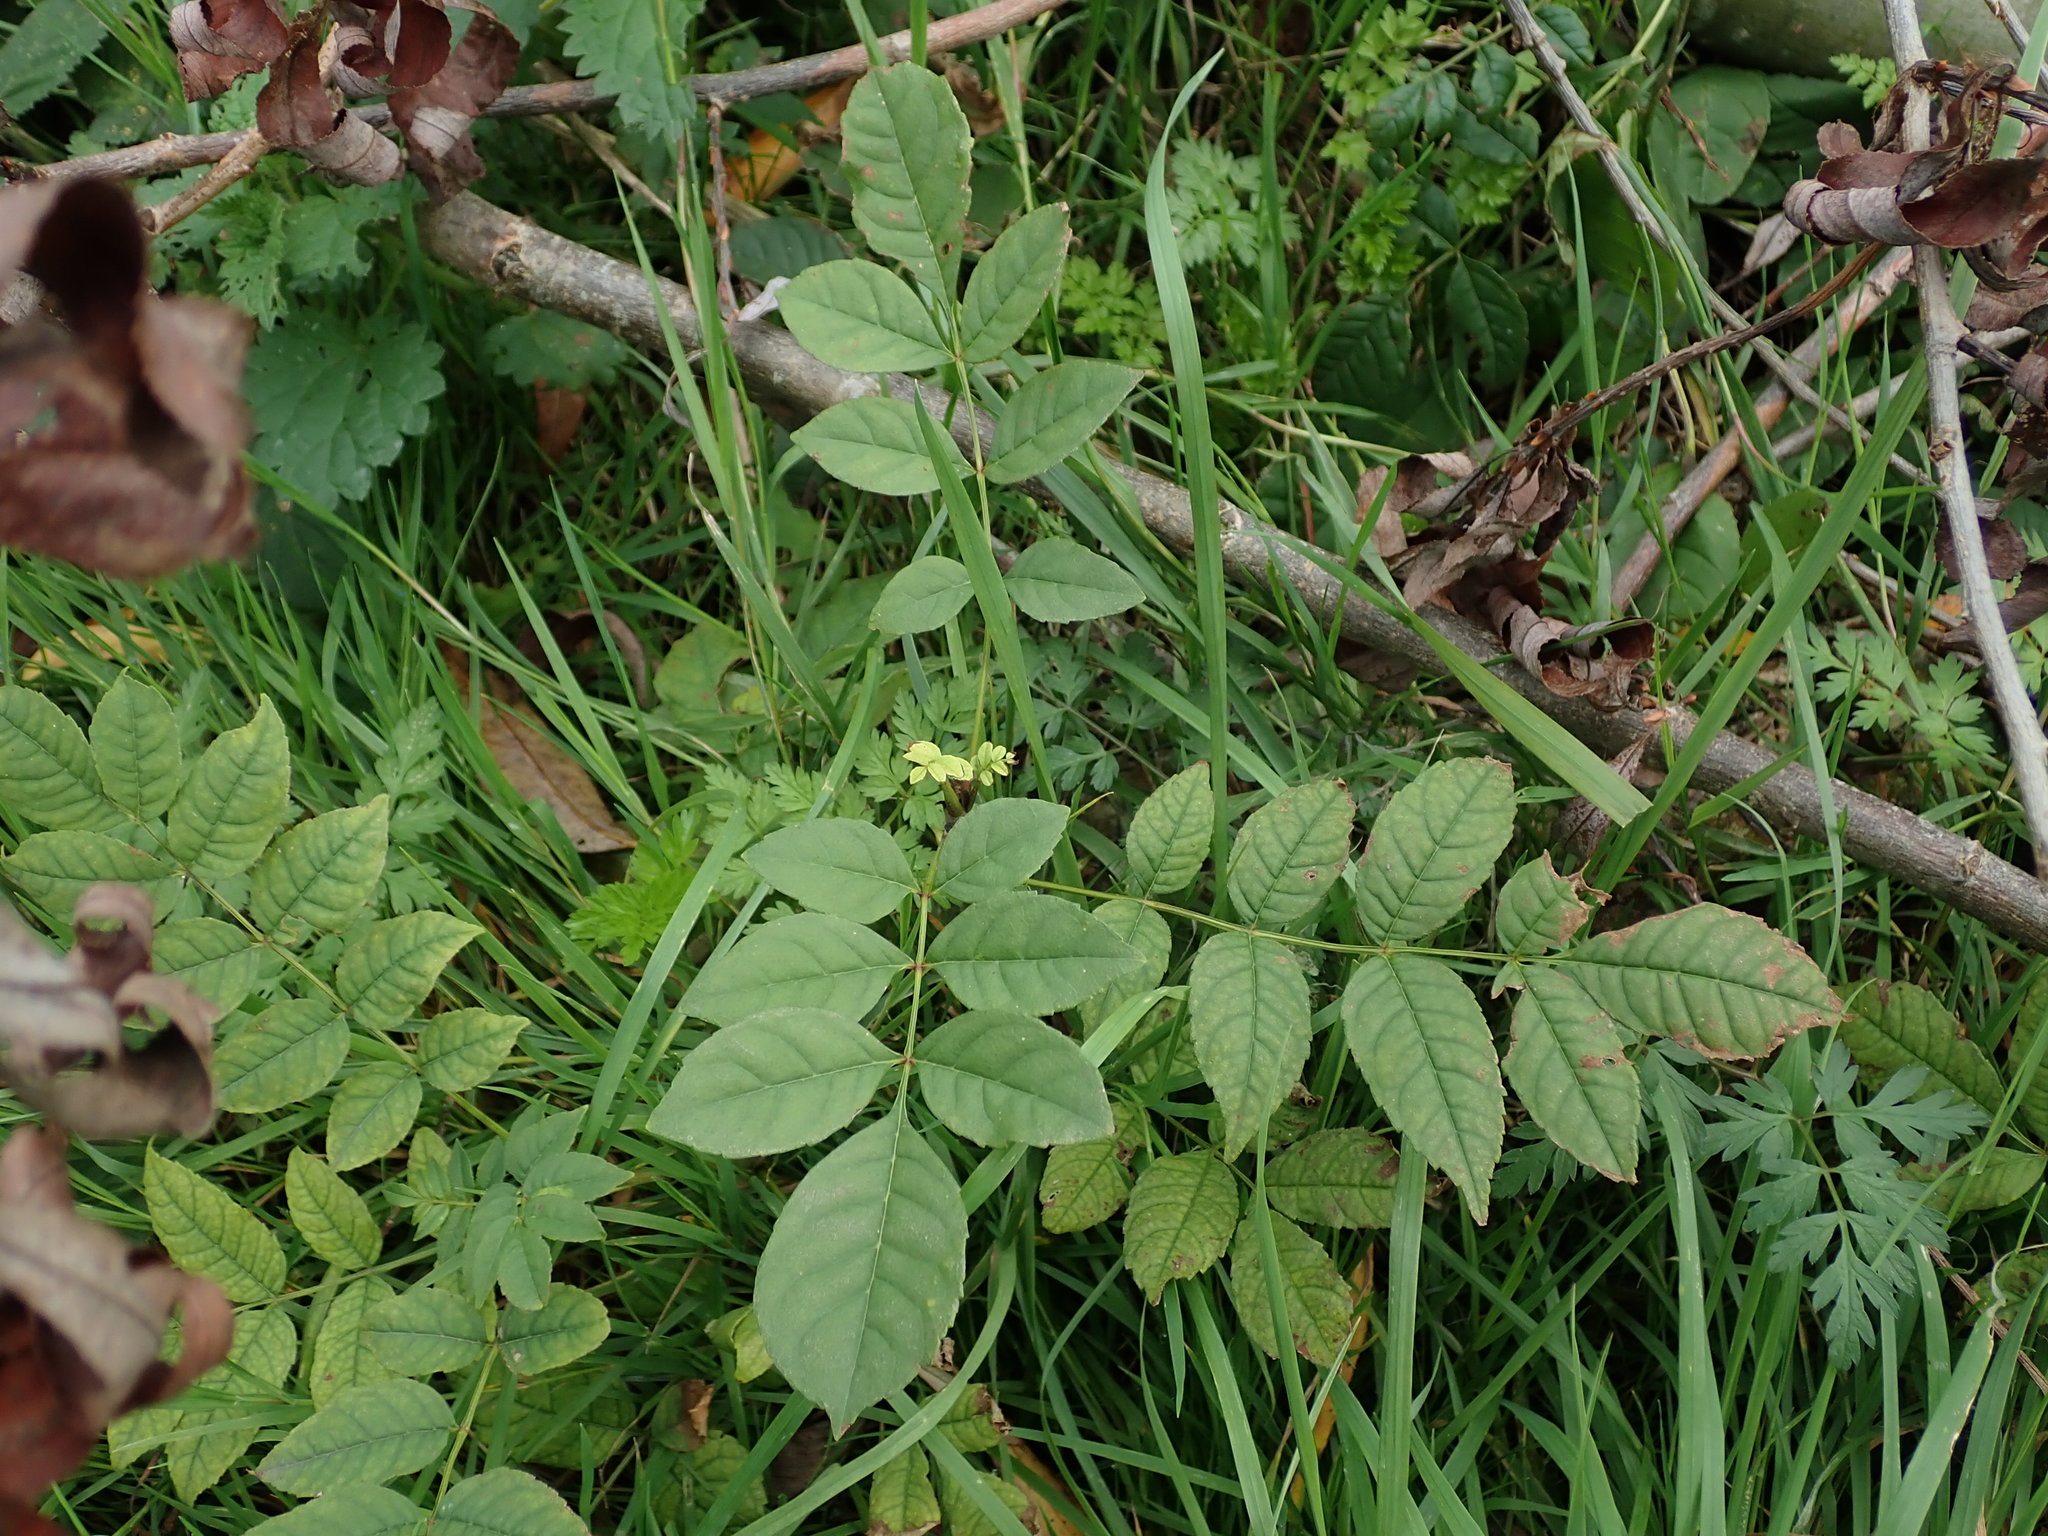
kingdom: Plantae
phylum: Tracheophyta
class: Magnoliopsida
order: Lamiales
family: Oleaceae
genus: Fraxinus
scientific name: Fraxinus excelsior
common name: European ash
